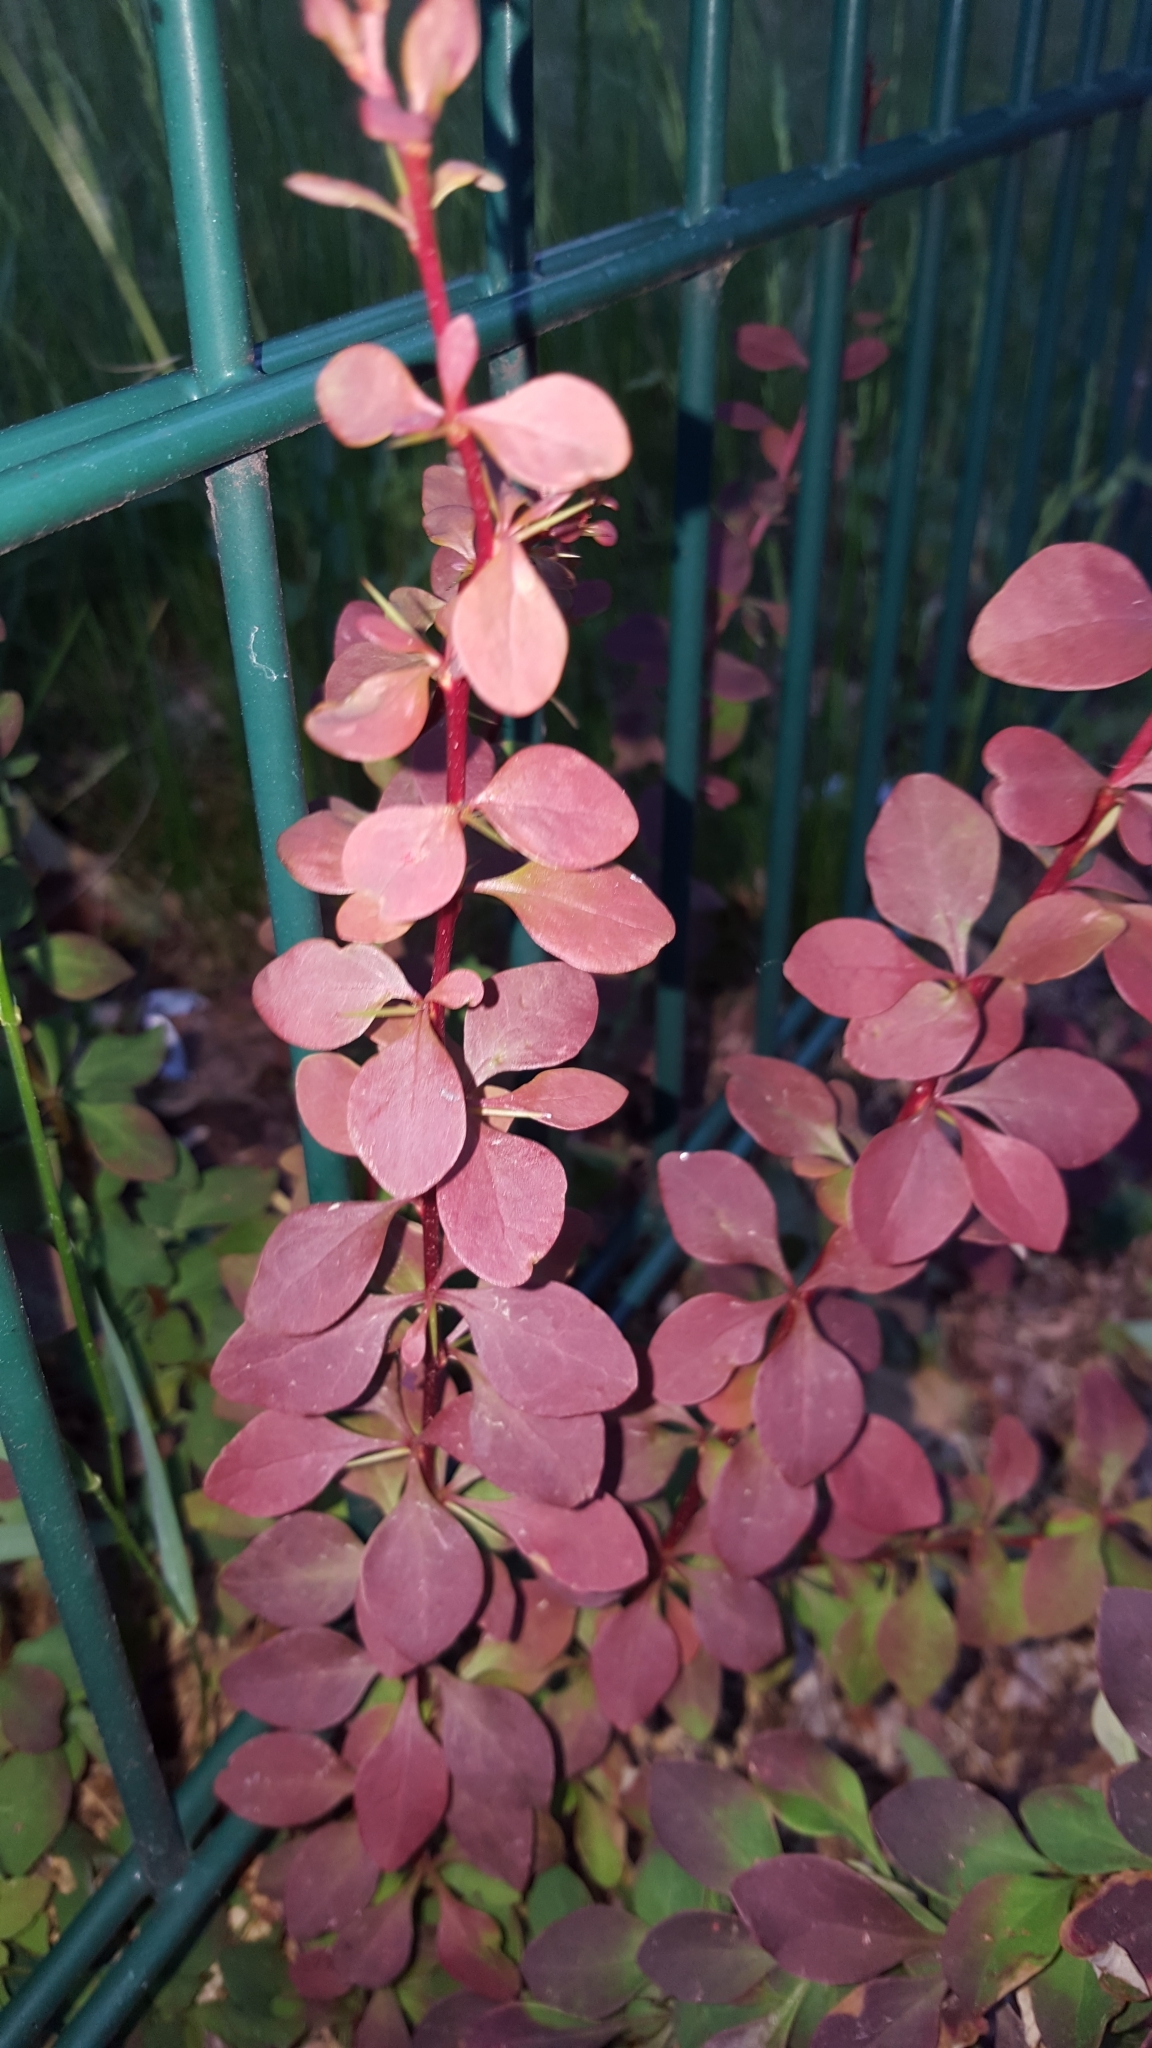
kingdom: Plantae
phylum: Tracheophyta
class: Magnoliopsida
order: Ranunculales
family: Berberidaceae
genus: Berberis
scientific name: Berberis thunbergii
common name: Japanese barberry
